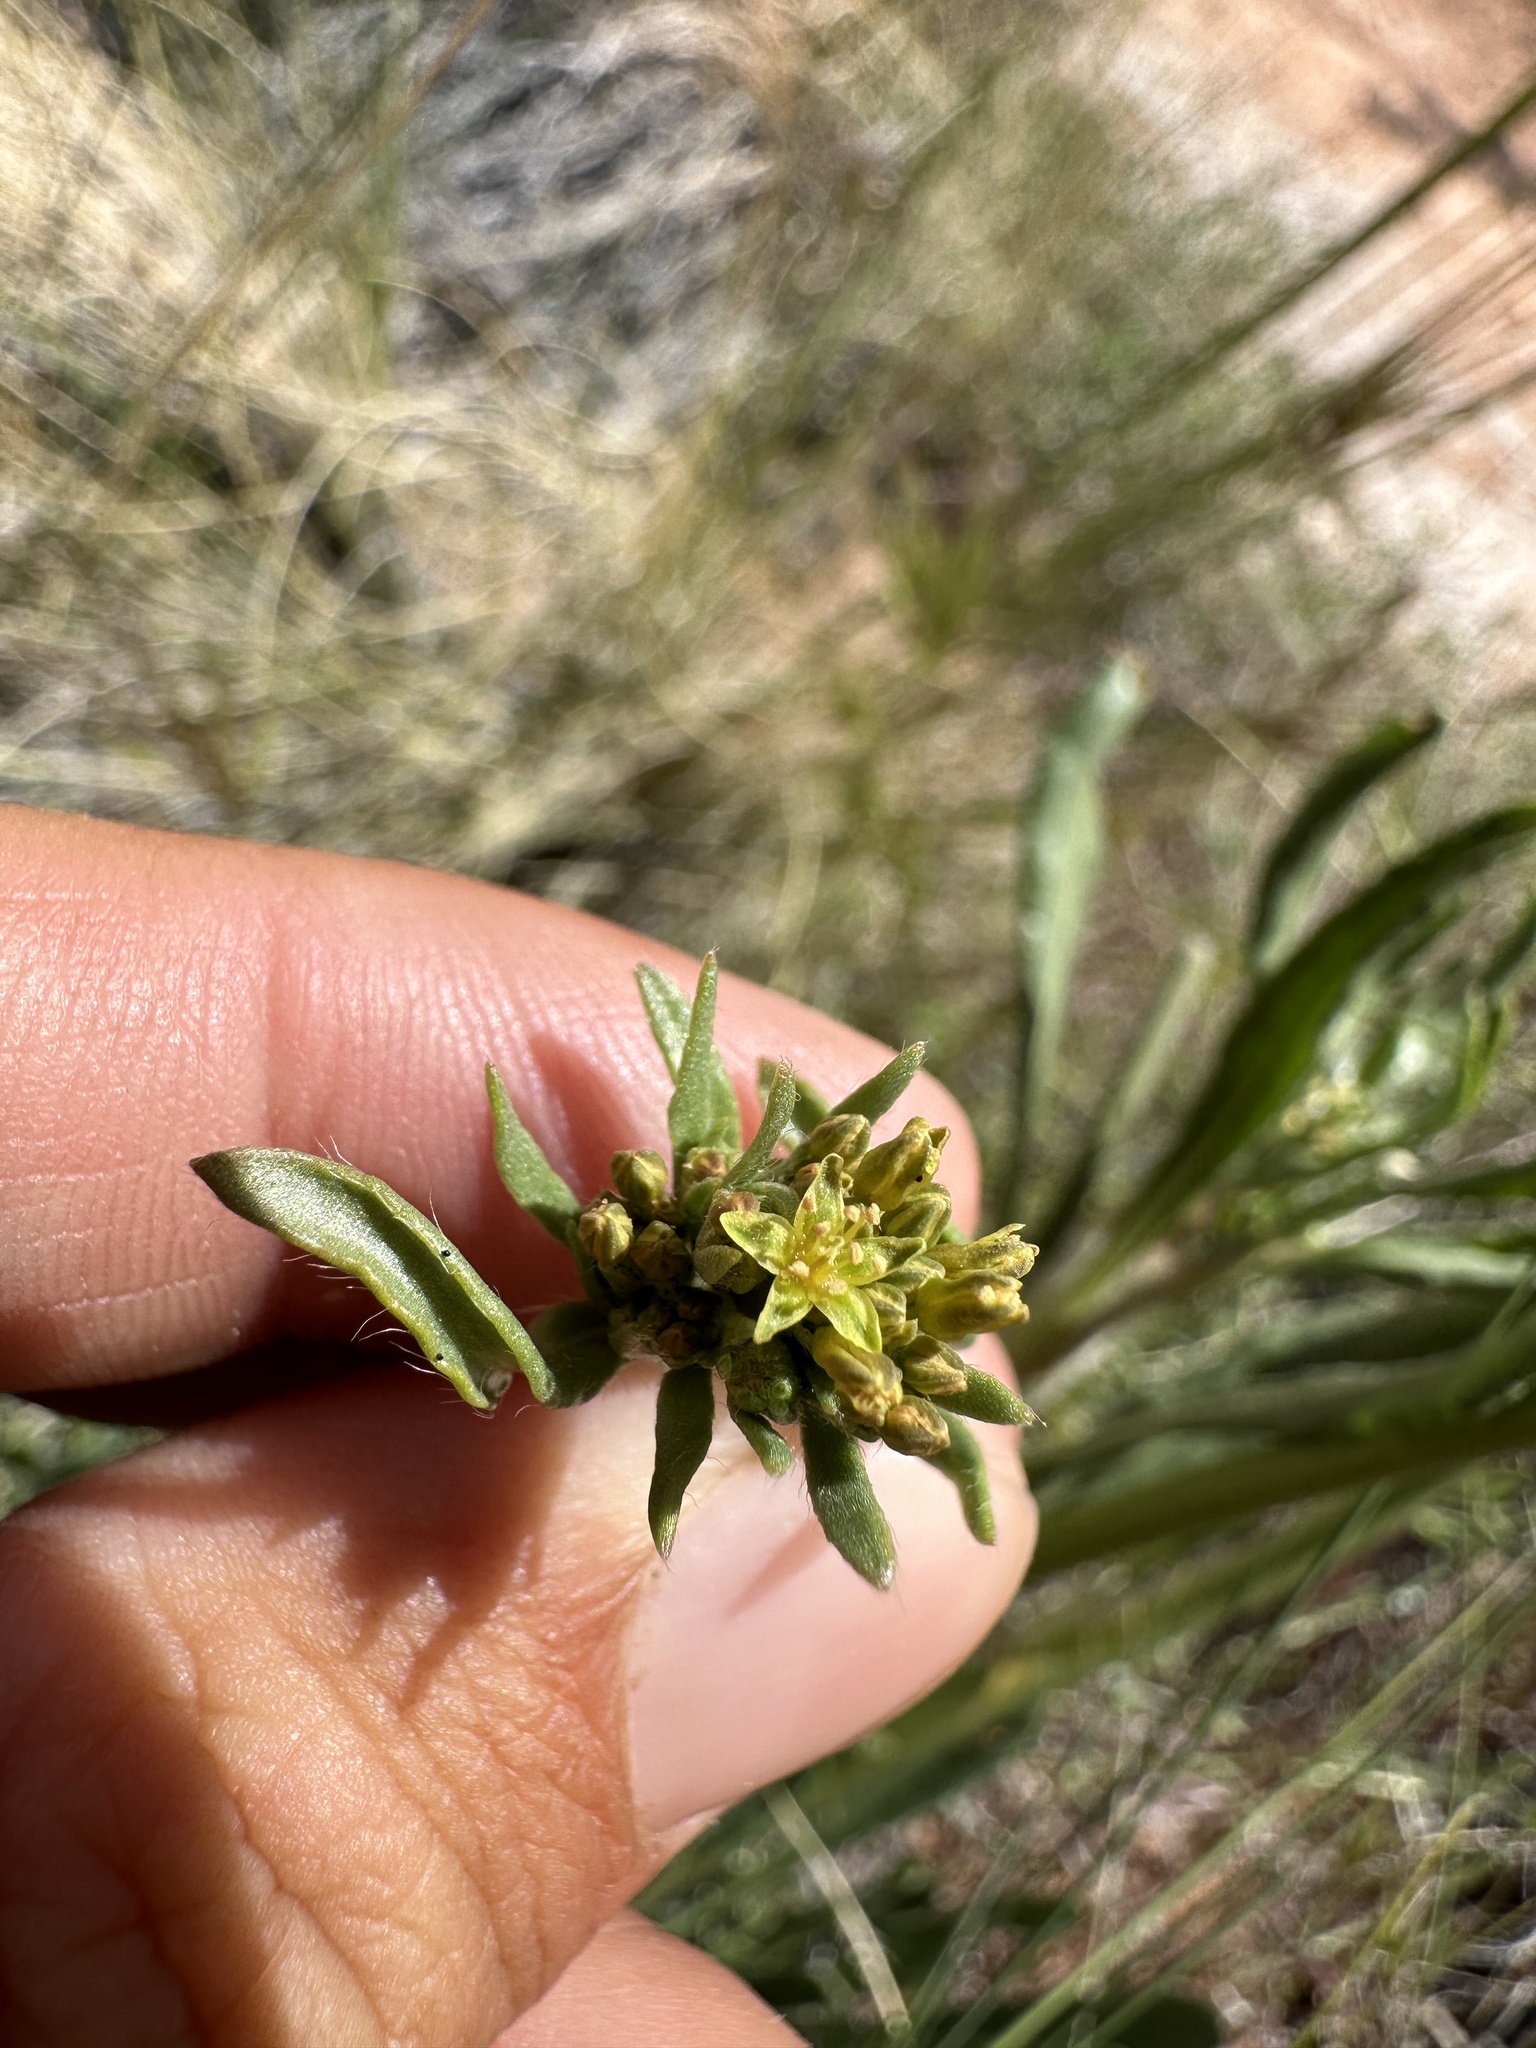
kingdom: Plantae
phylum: Tracheophyta
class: Magnoliopsida
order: Caryophyllales
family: Polygonaceae
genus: Eriogonum
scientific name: Eriogonum alatum
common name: Winged eriogonum
